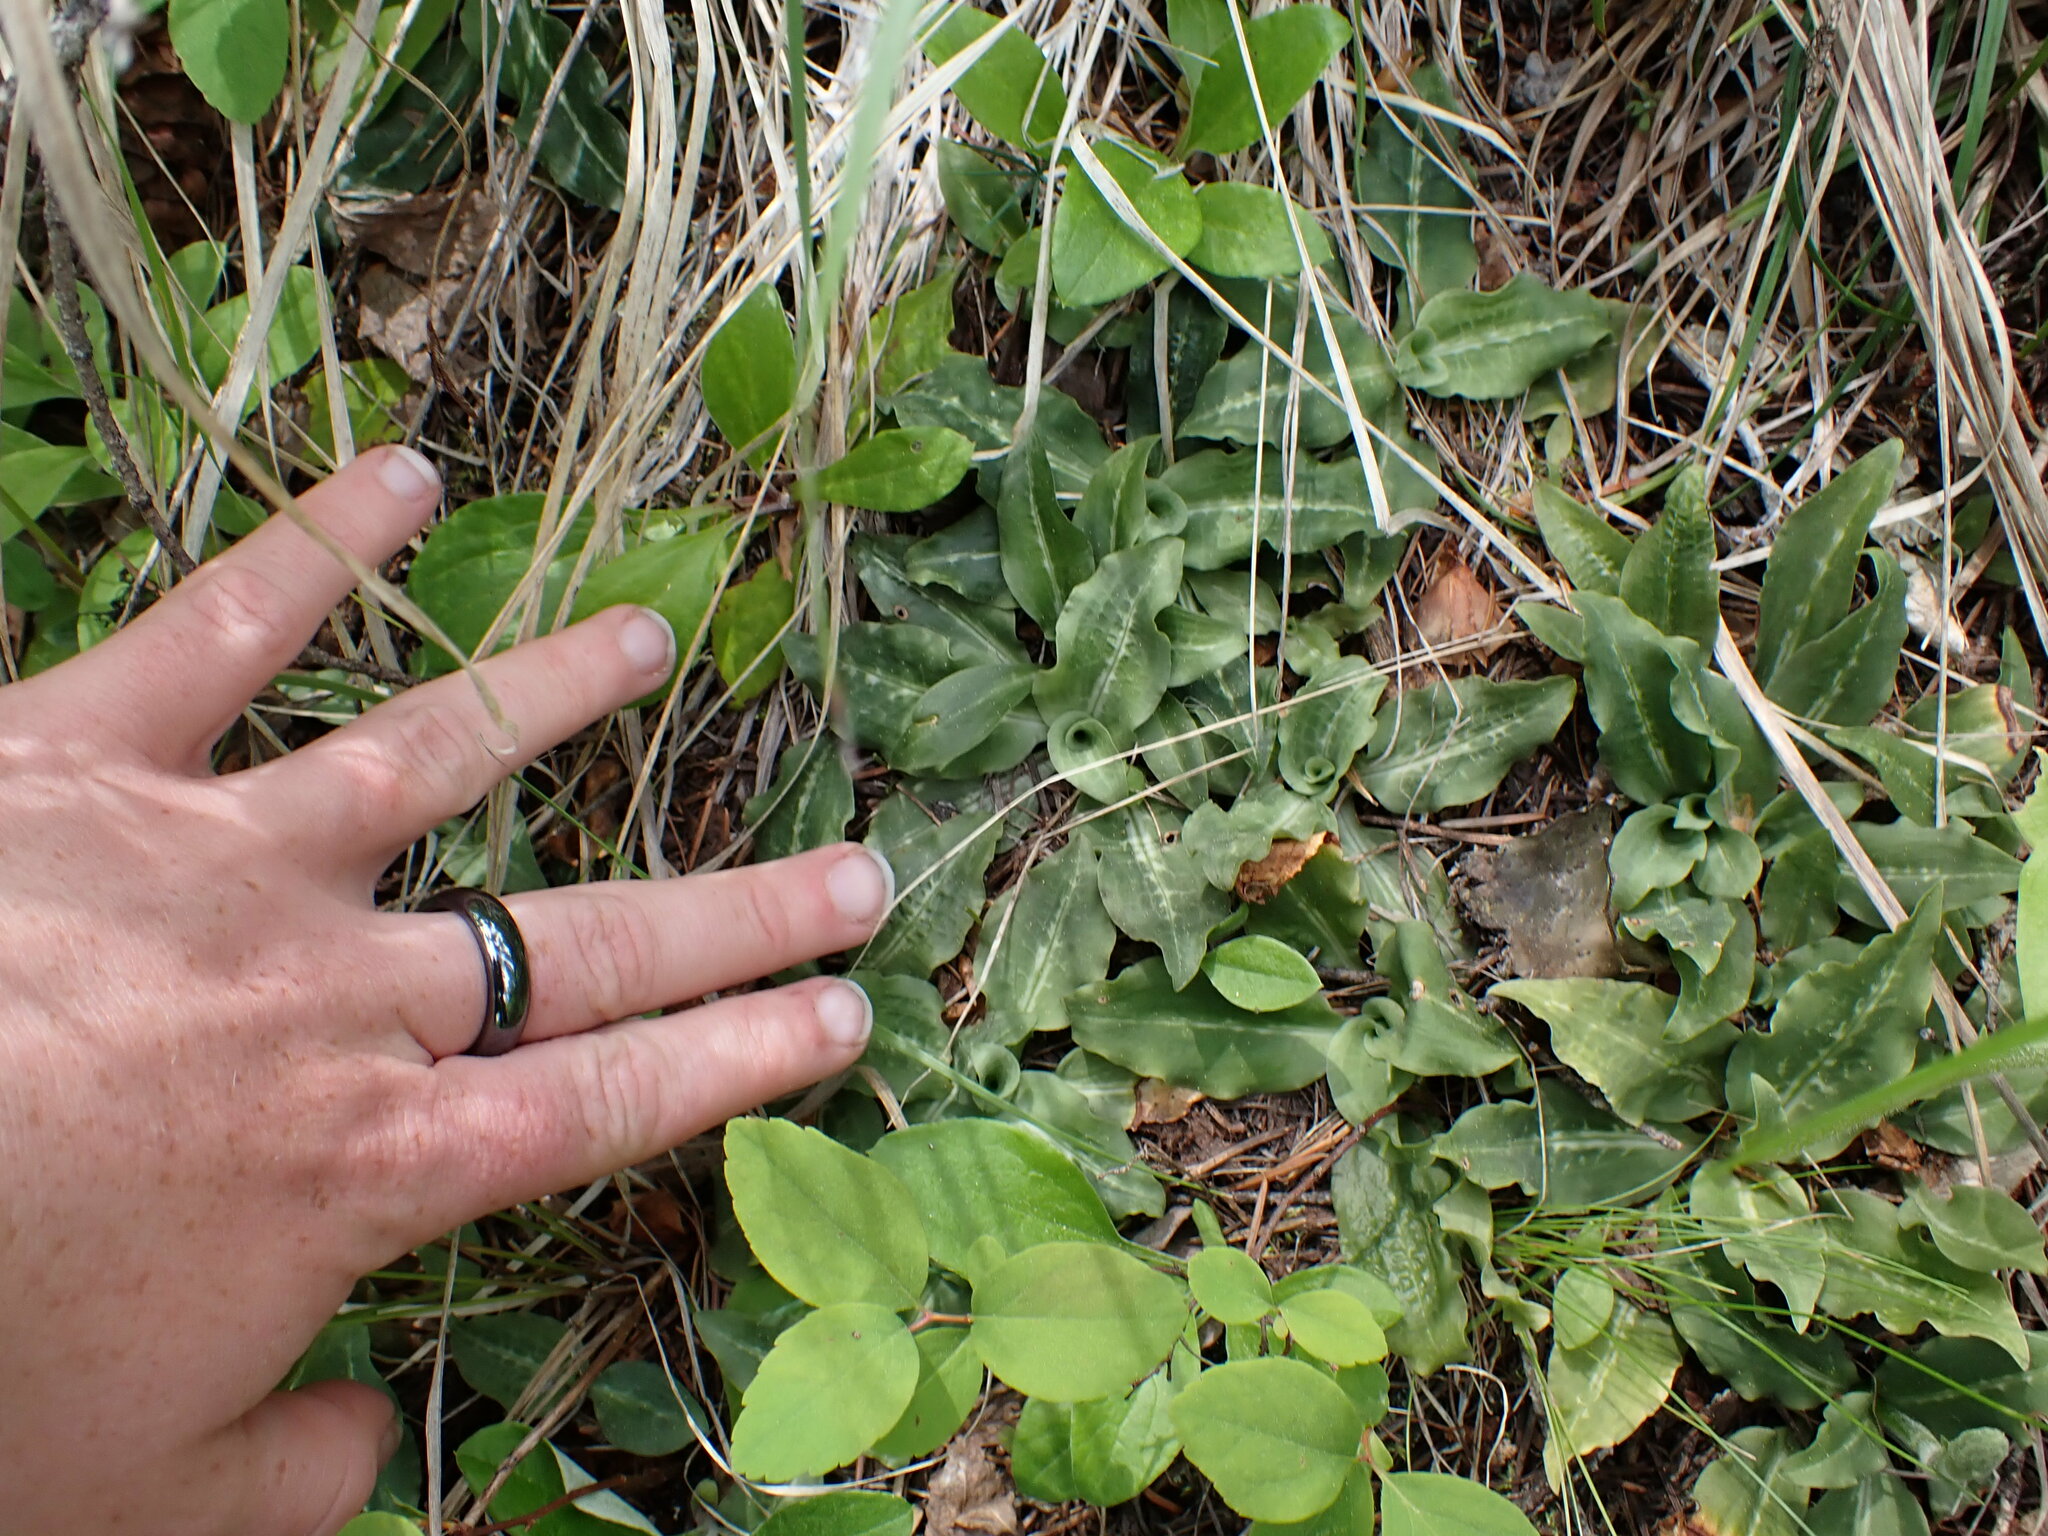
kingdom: Plantae
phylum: Tracheophyta
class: Liliopsida
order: Asparagales
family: Orchidaceae
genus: Goodyera
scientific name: Goodyera oblongifolia
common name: Giant rattlesnake-plantain
